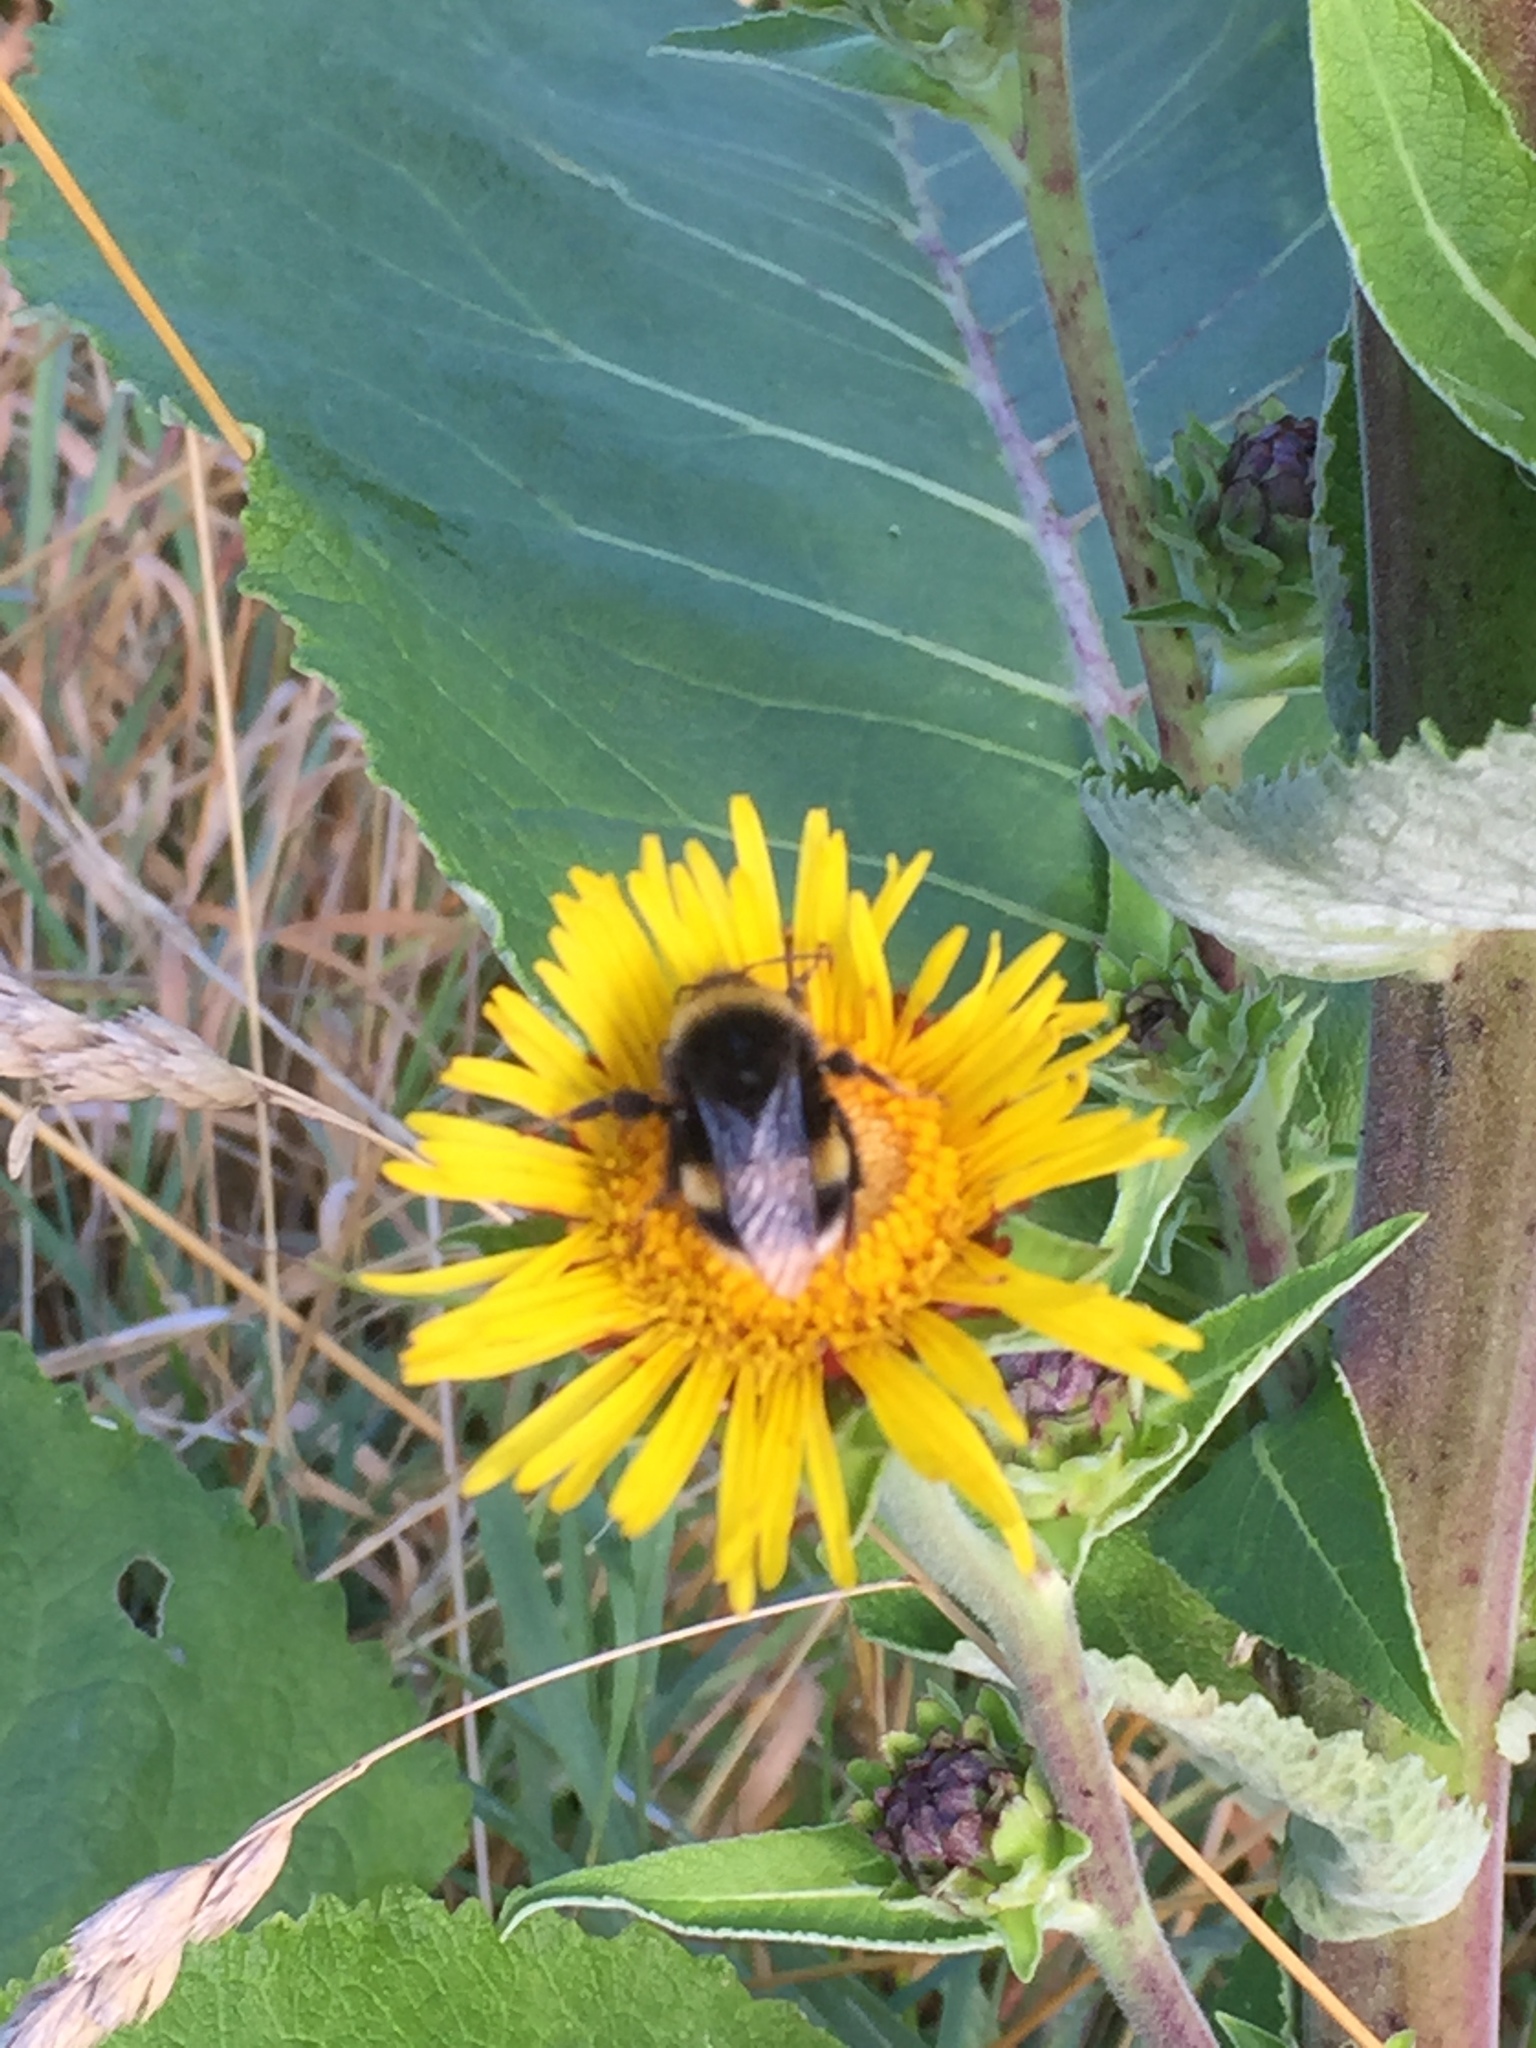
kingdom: Plantae
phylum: Tracheophyta
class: Magnoliopsida
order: Asterales
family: Asteraceae
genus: Inula
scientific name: Inula helenium
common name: Elecampane
